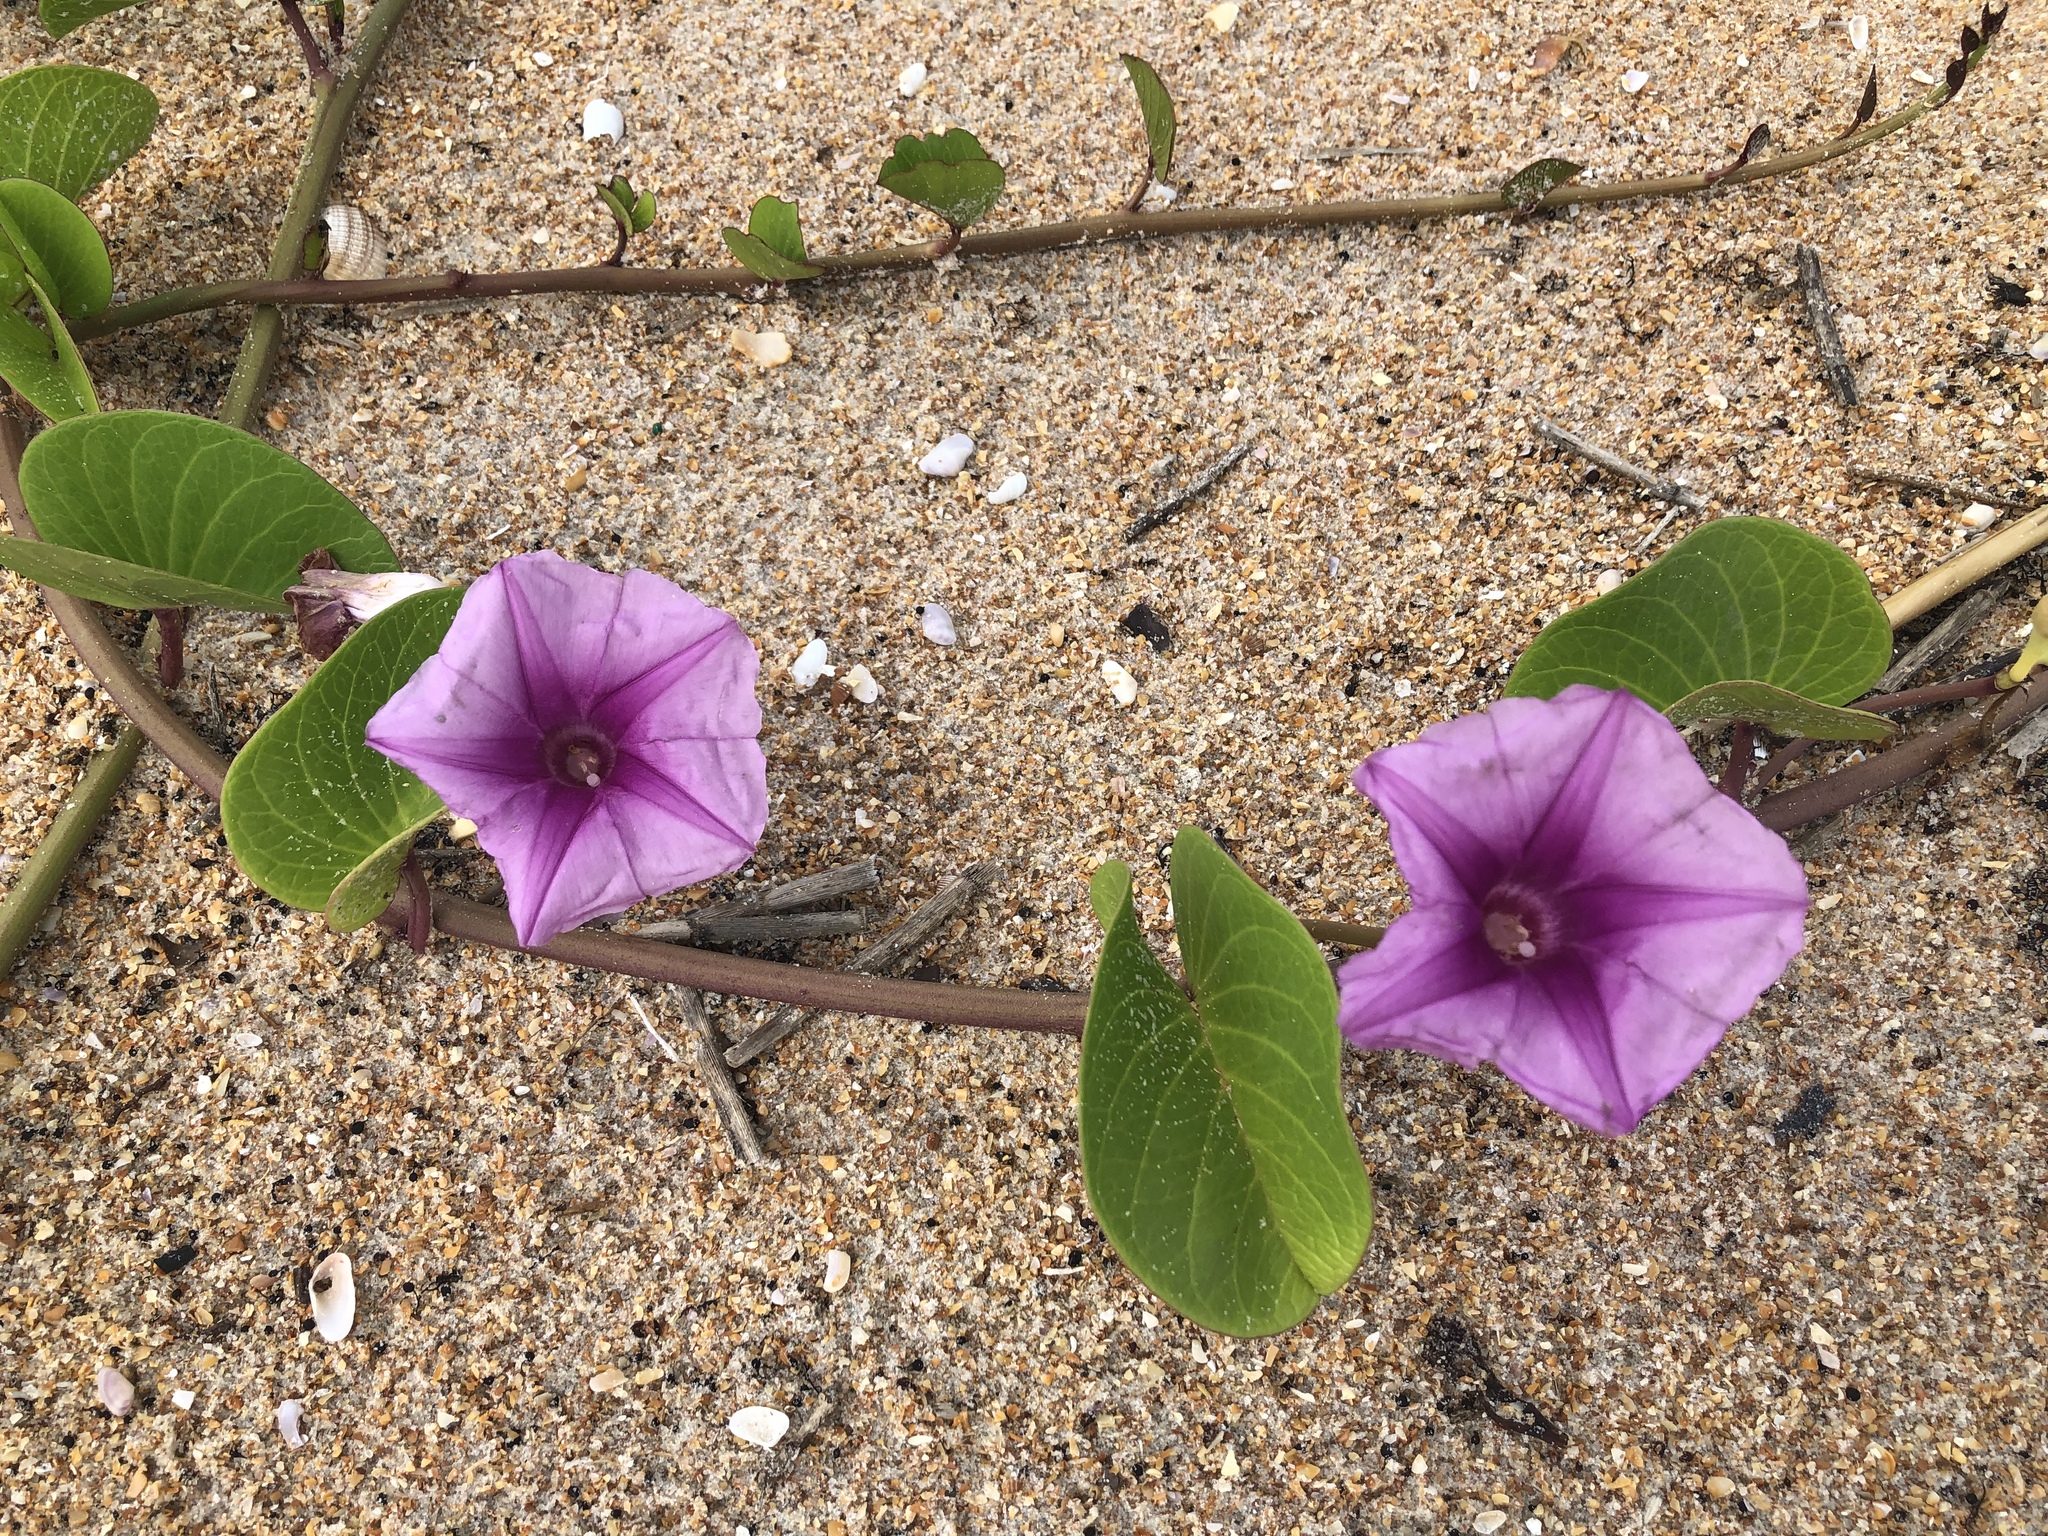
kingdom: Plantae
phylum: Tracheophyta
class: Magnoliopsida
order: Solanales
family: Convolvulaceae
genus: Ipomoea
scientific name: Ipomoea pes-caprae
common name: Beach morning glory
